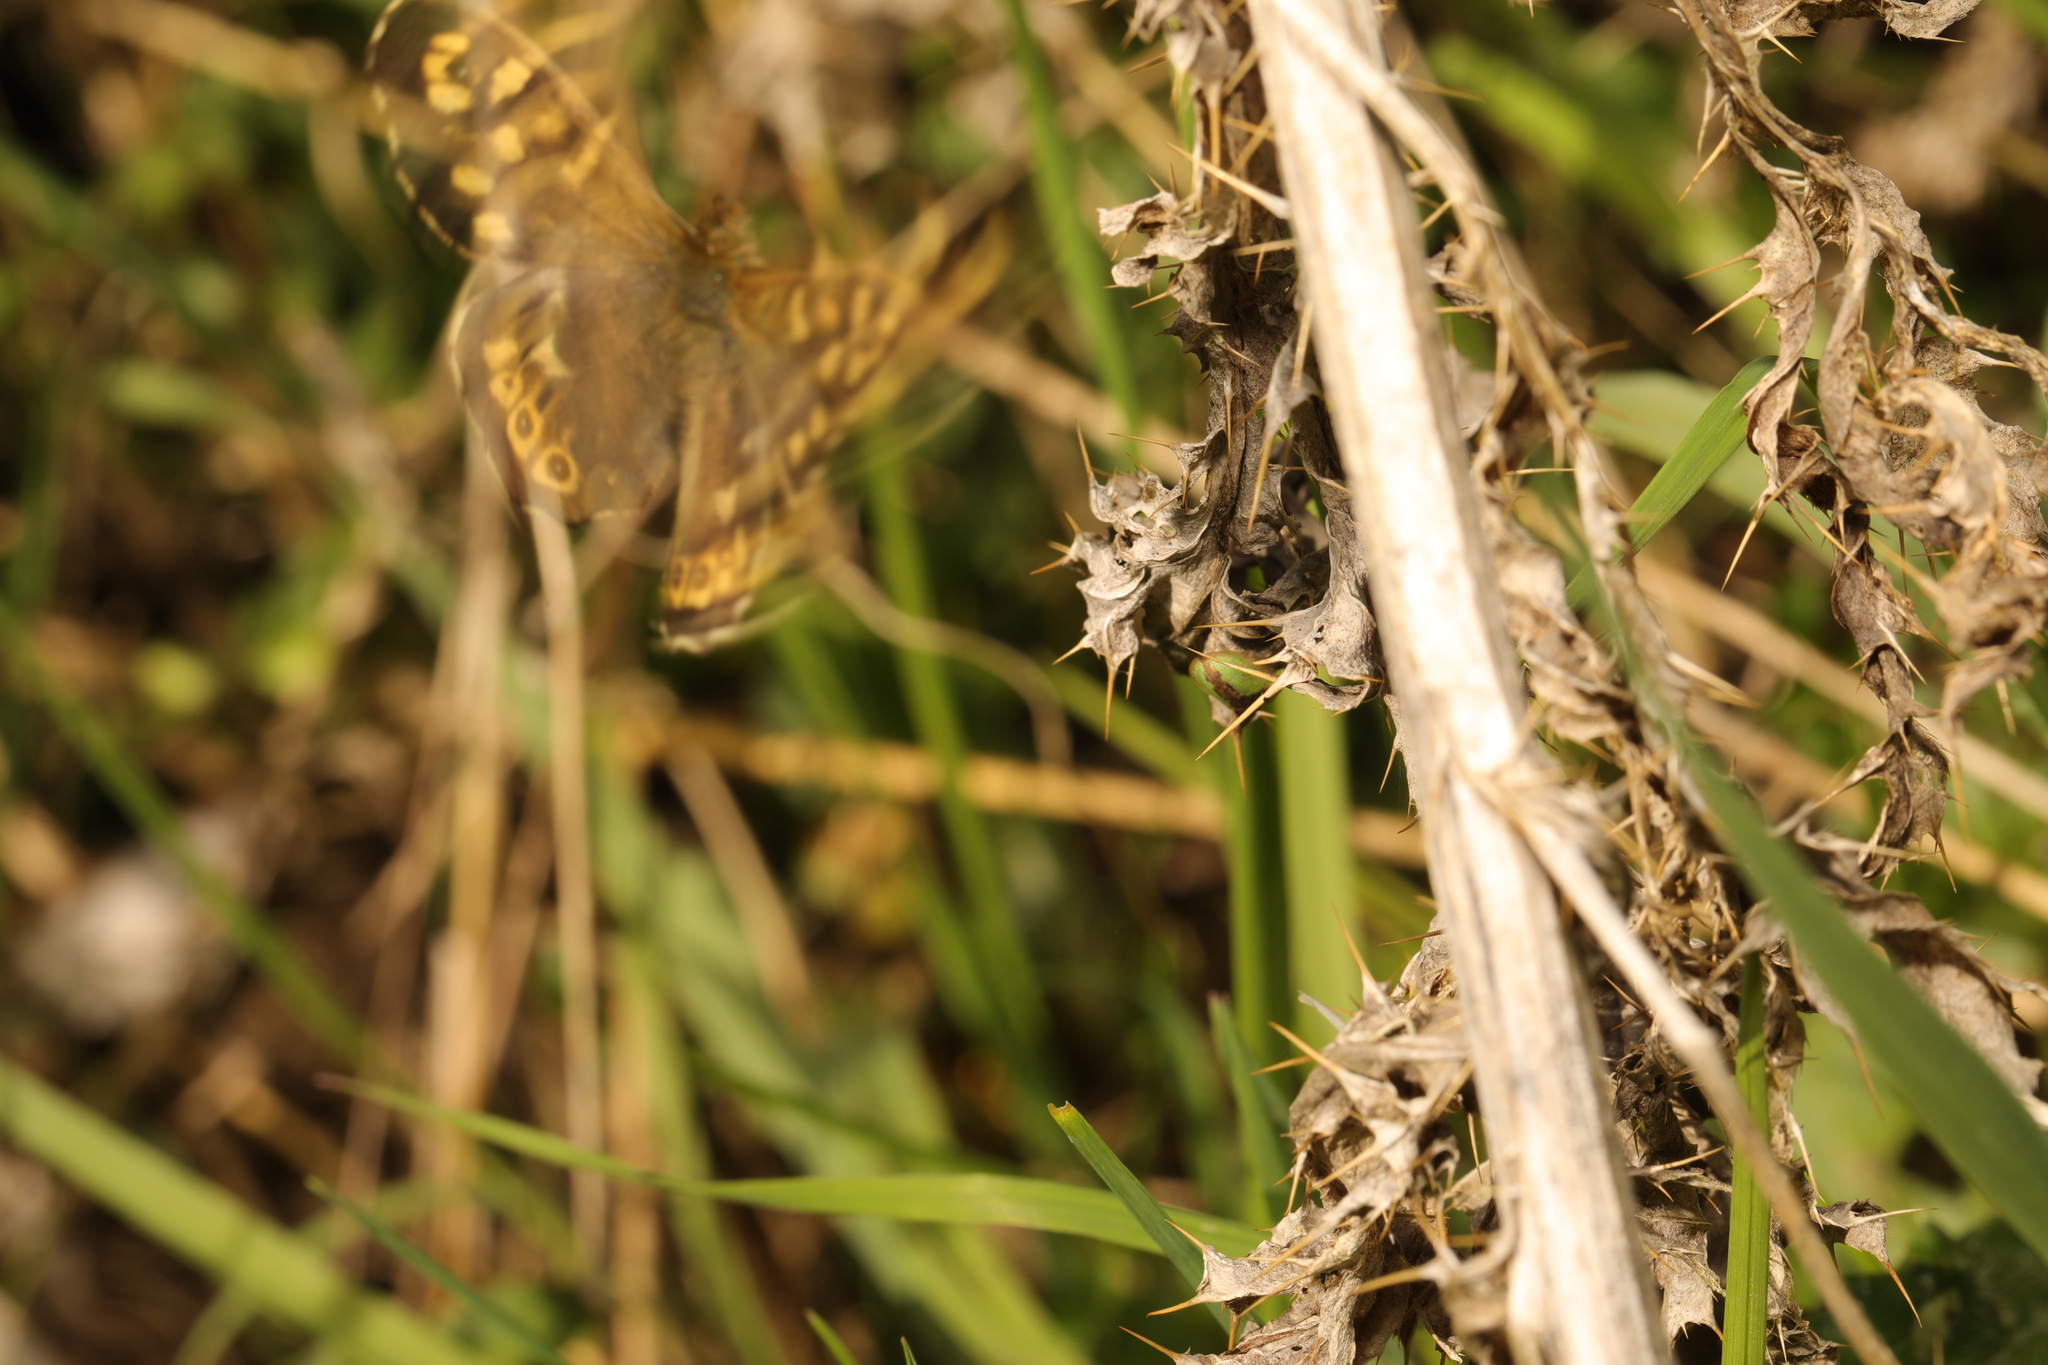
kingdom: Animalia
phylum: Arthropoda
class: Insecta
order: Lepidoptera
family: Nymphalidae
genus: Pararge
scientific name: Pararge aegeria
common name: Speckled wood
